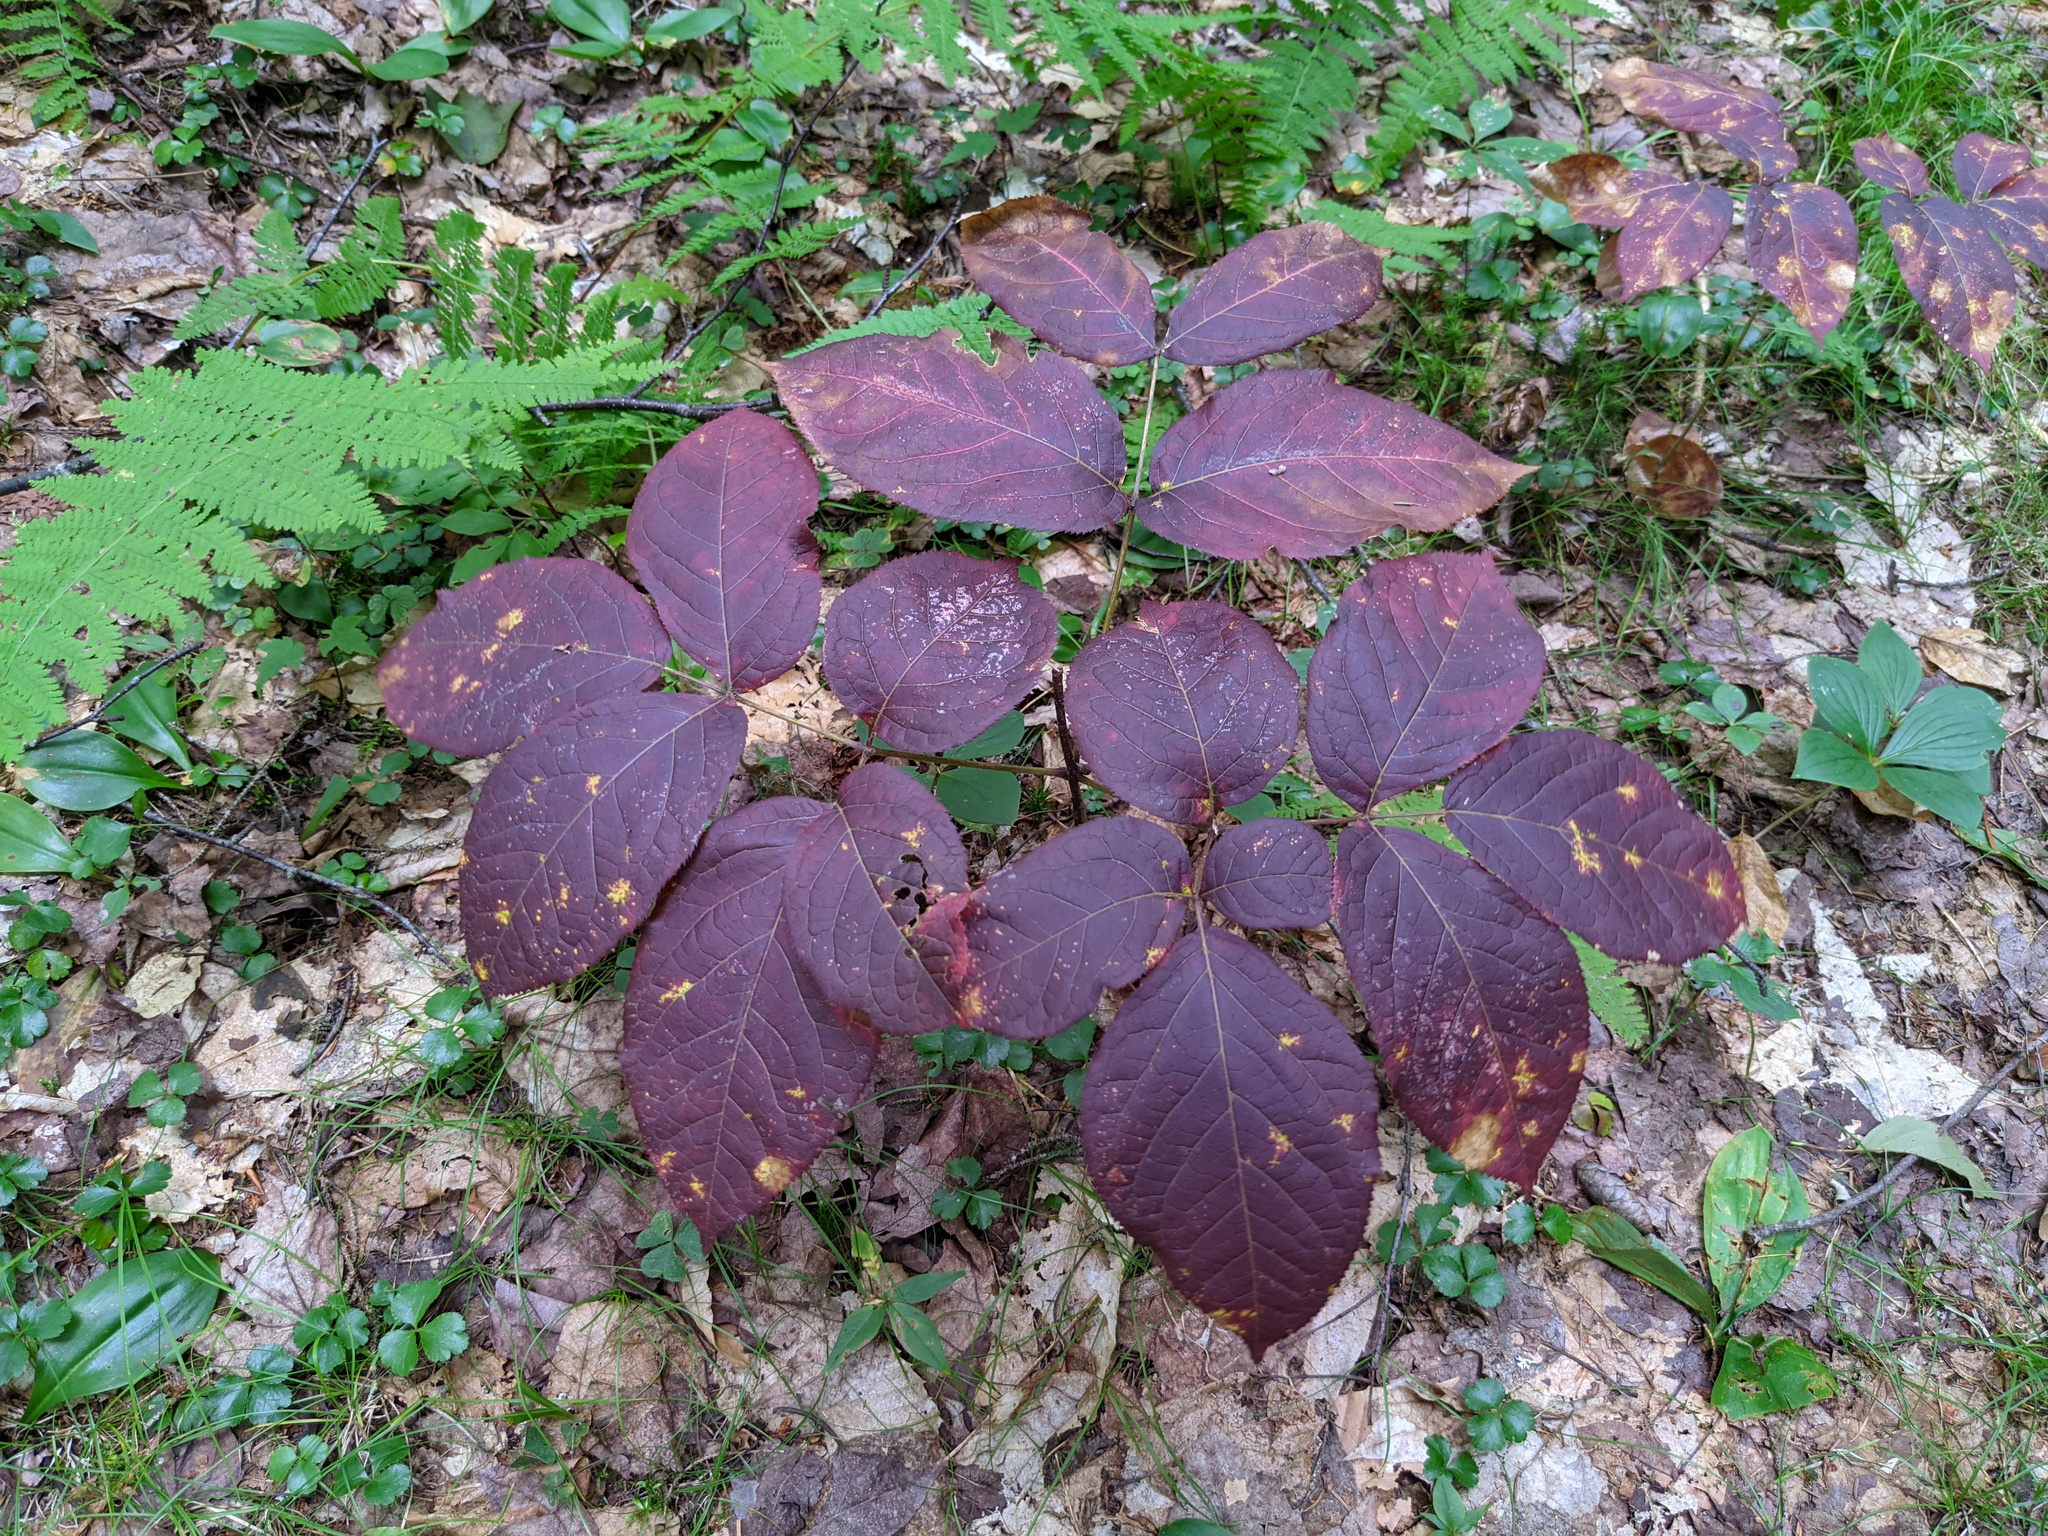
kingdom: Plantae
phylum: Tracheophyta
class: Magnoliopsida
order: Apiales
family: Araliaceae
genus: Aralia
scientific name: Aralia nudicaulis
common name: Wild sarsaparilla
